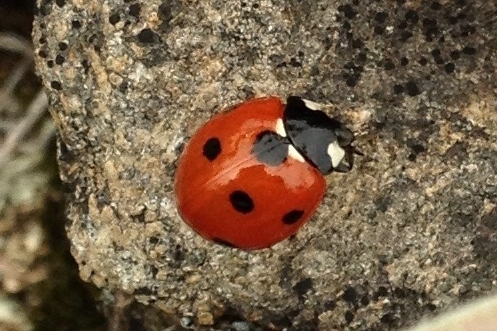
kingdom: Animalia
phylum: Arthropoda
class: Insecta
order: Coleoptera
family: Coccinellidae
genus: Coccinella
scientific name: Coccinella septempunctata
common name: Sevenspotted lady beetle
